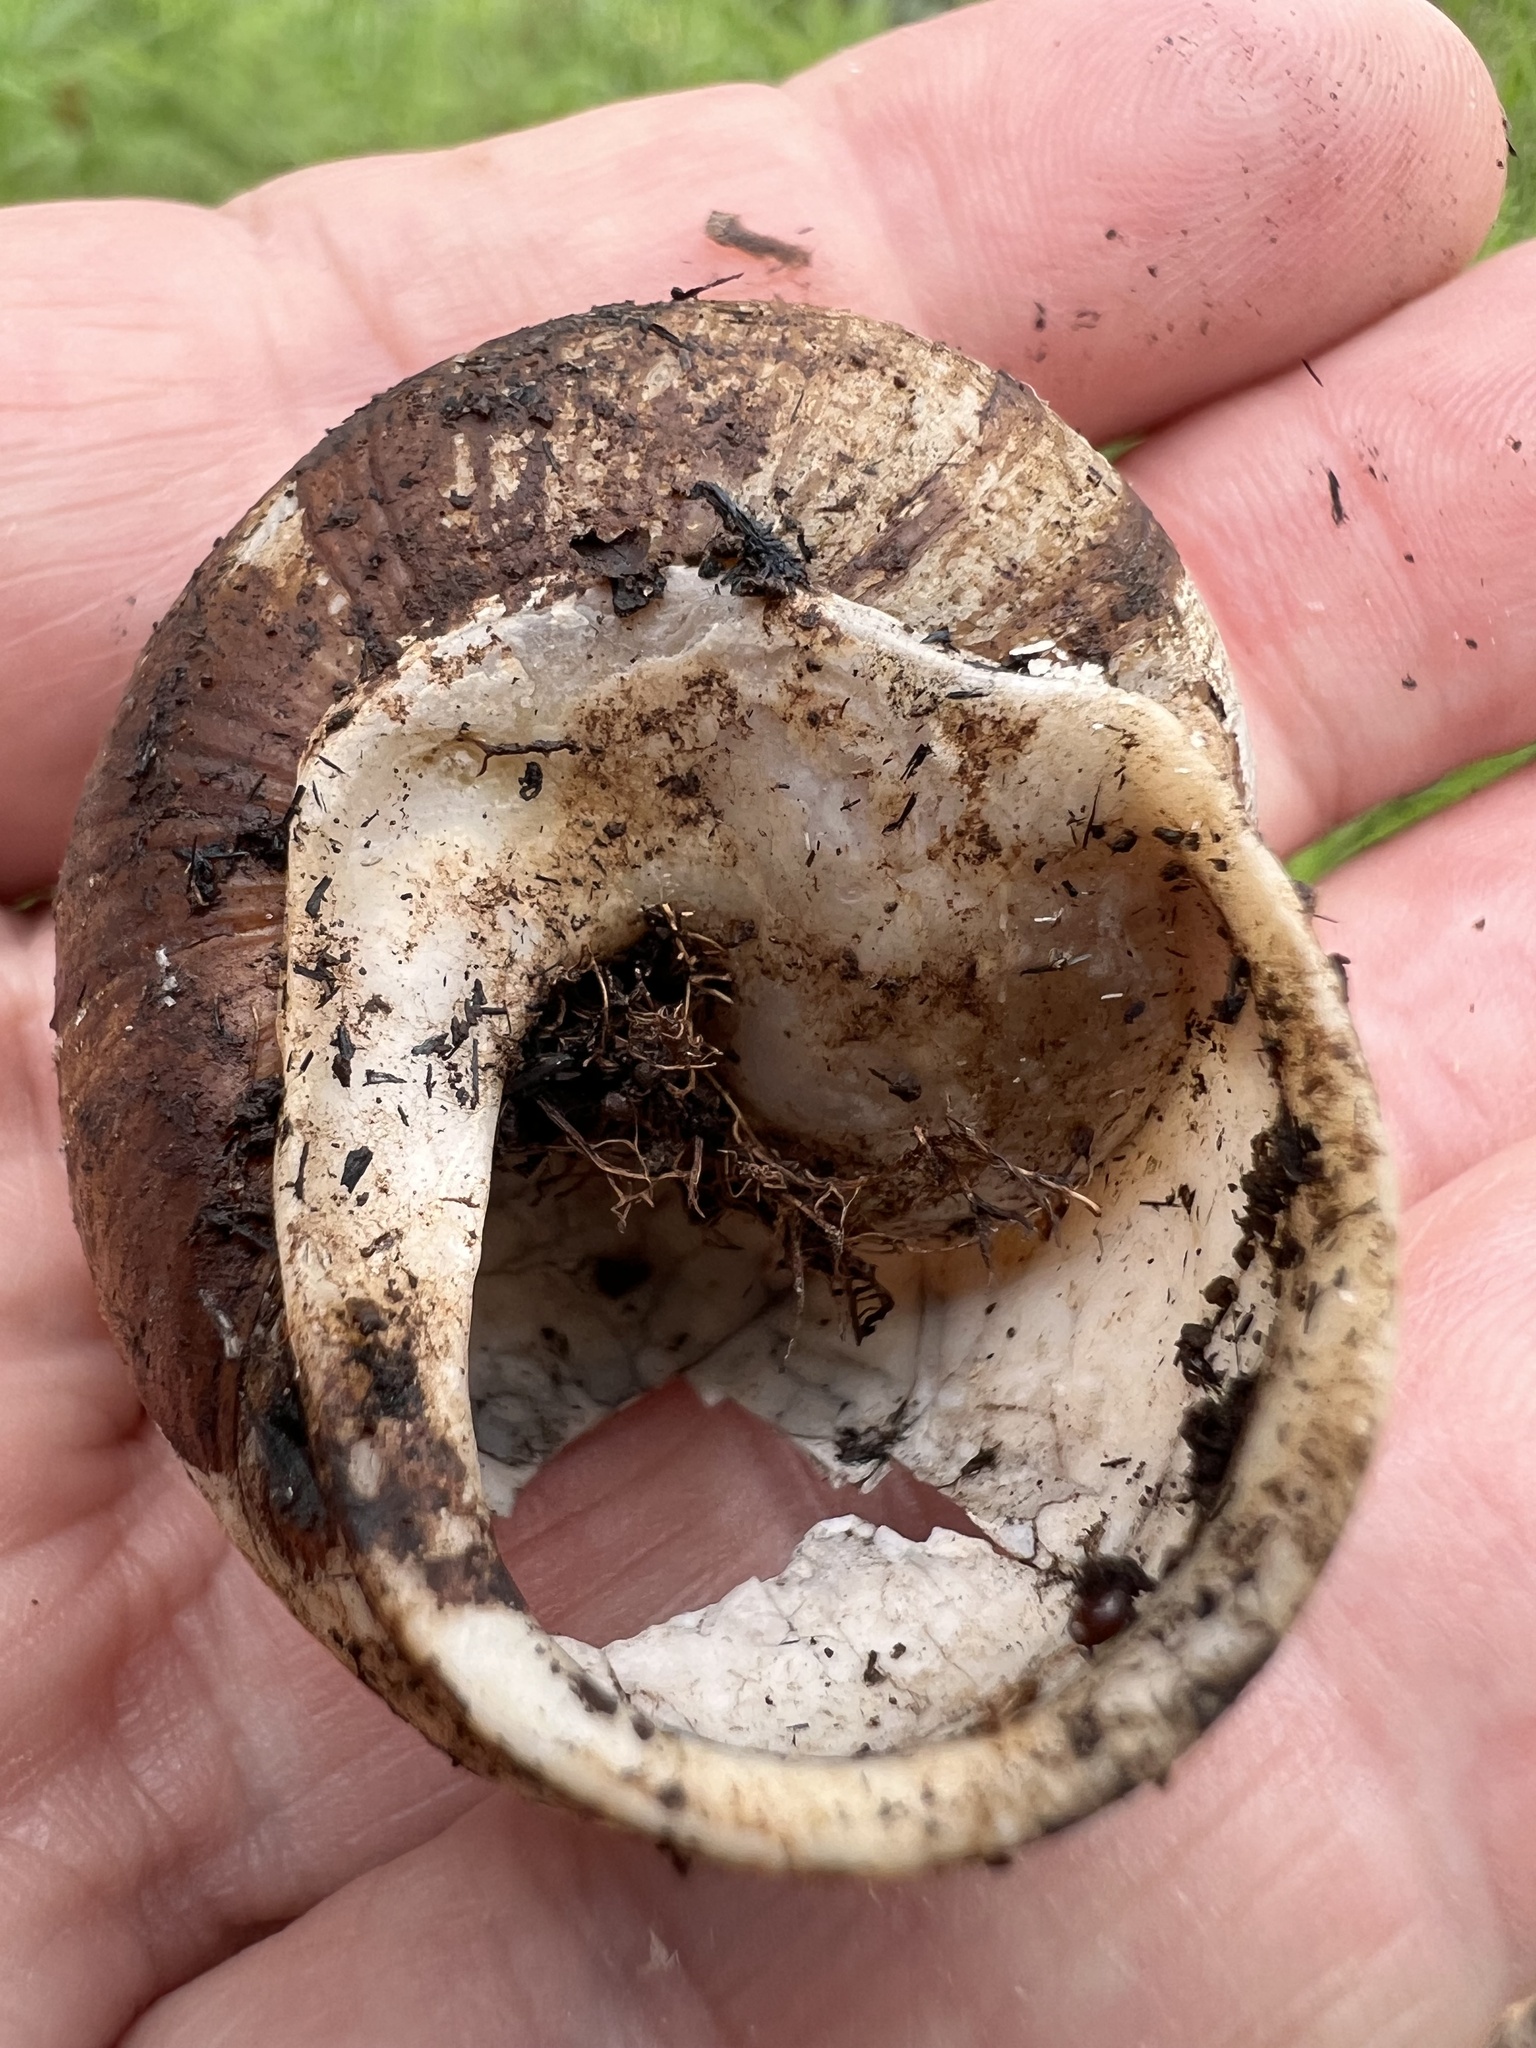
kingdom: Animalia
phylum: Mollusca
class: Gastropoda
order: Stylommatophora
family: Camaenidae
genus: Xanthomelon
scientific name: Xanthomelon saginatum
